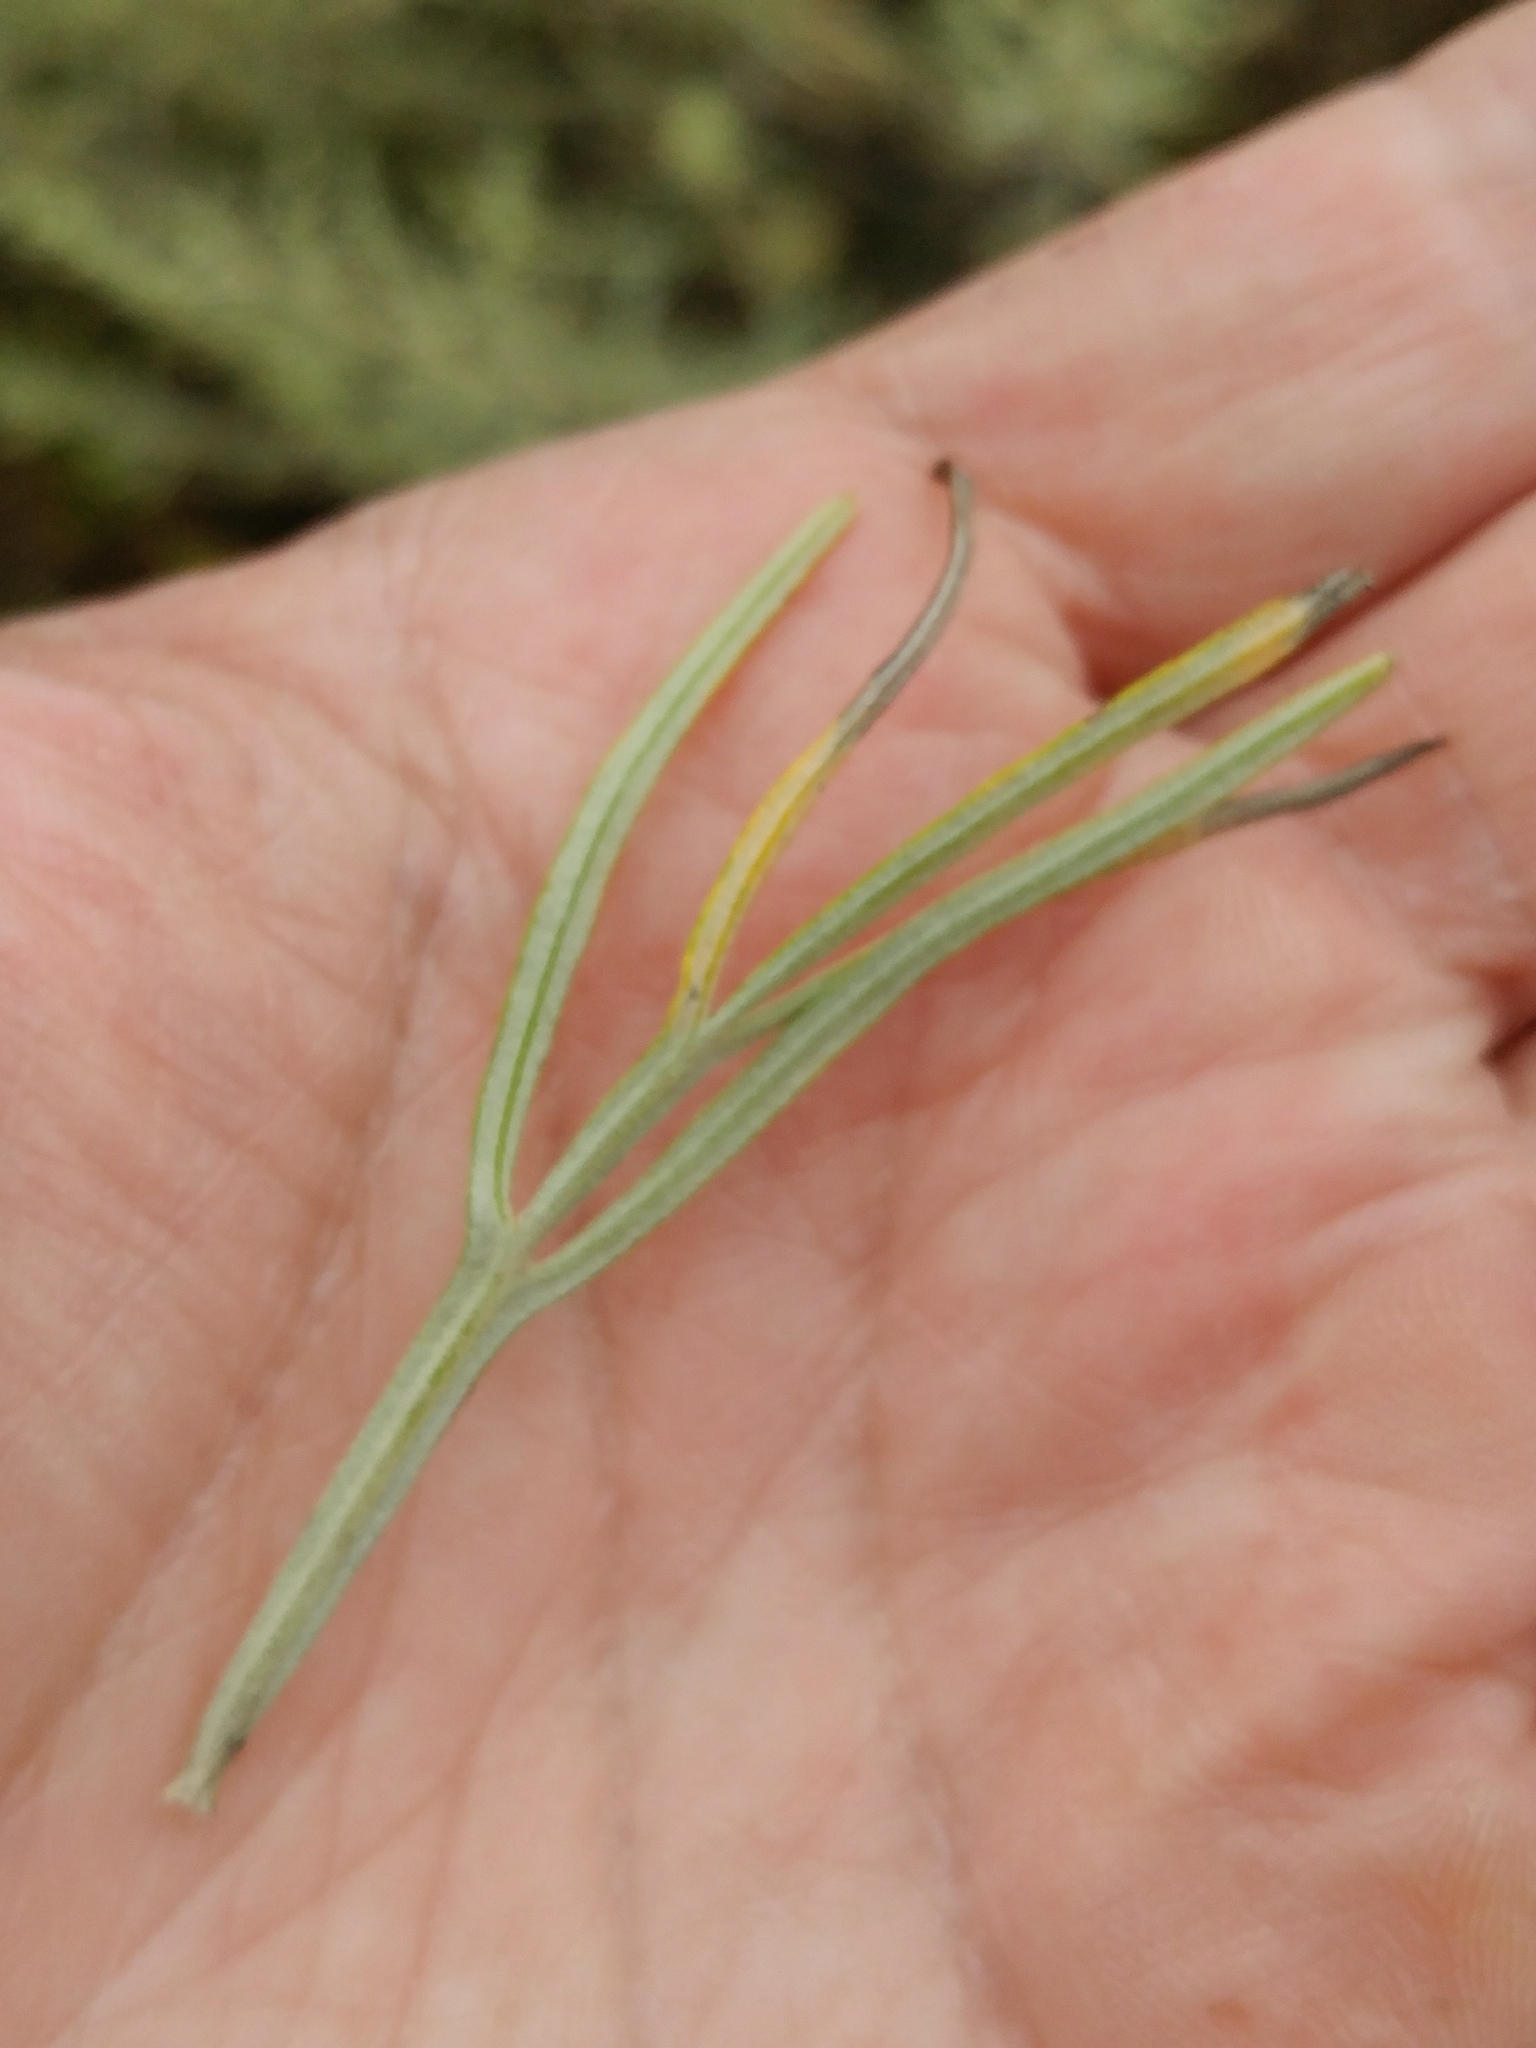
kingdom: Plantae
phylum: Tracheophyta
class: Magnoliopsida
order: Asterales
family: Asteraceae
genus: Artemisia
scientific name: Artemisia nesiotica
